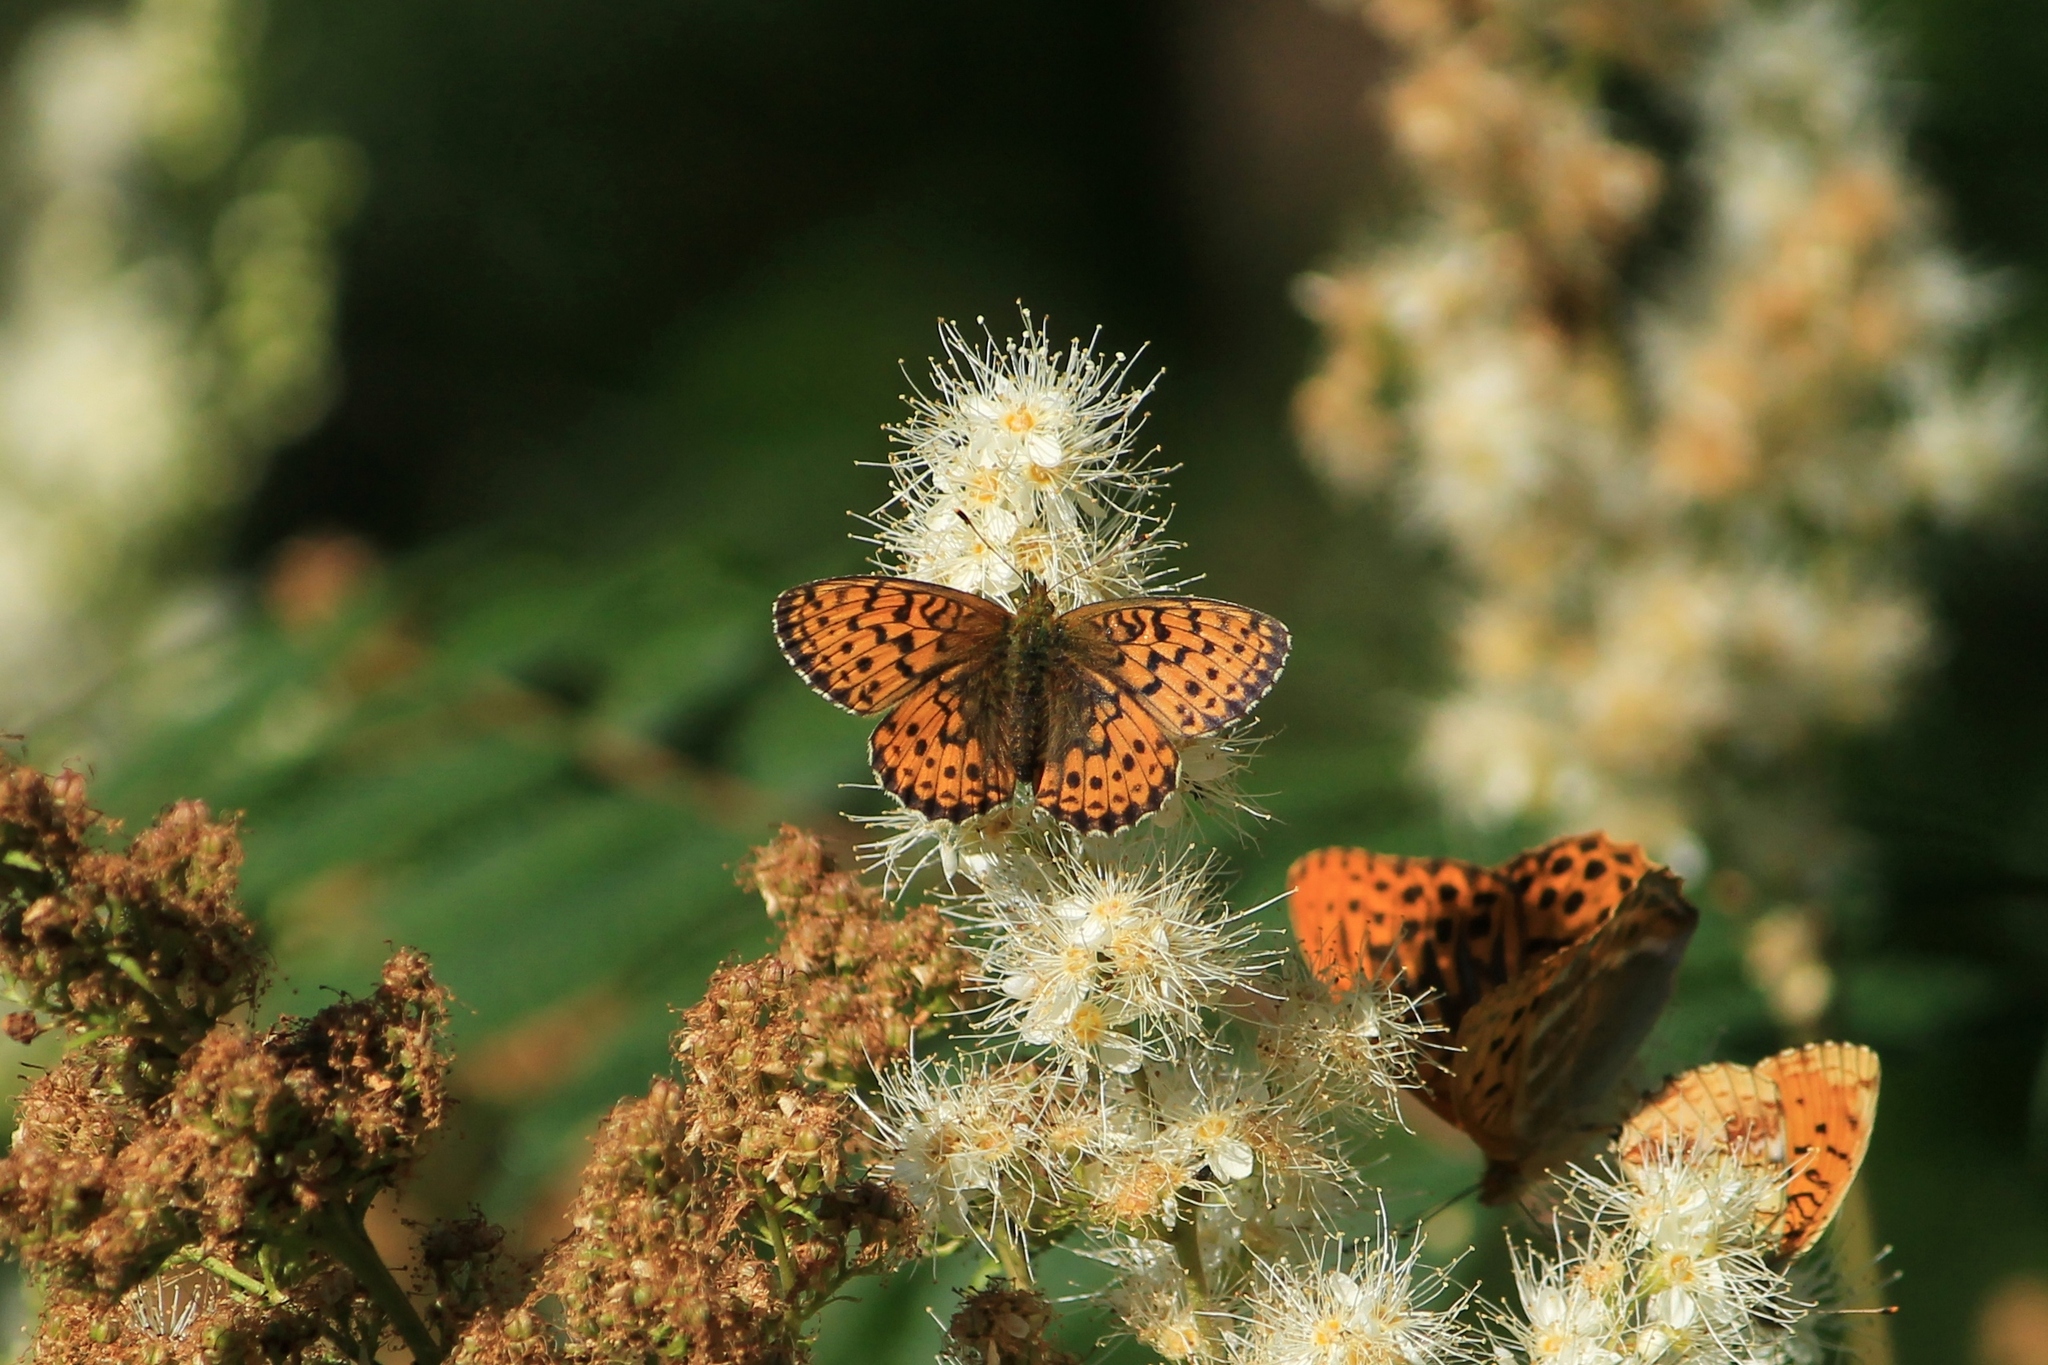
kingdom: Animalia
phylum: Arthropoda
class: Insecta
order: Lepidoptera
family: Nymphalidae
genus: Brenthis
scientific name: Brenthis ino
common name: Lesser marbled fritillary
